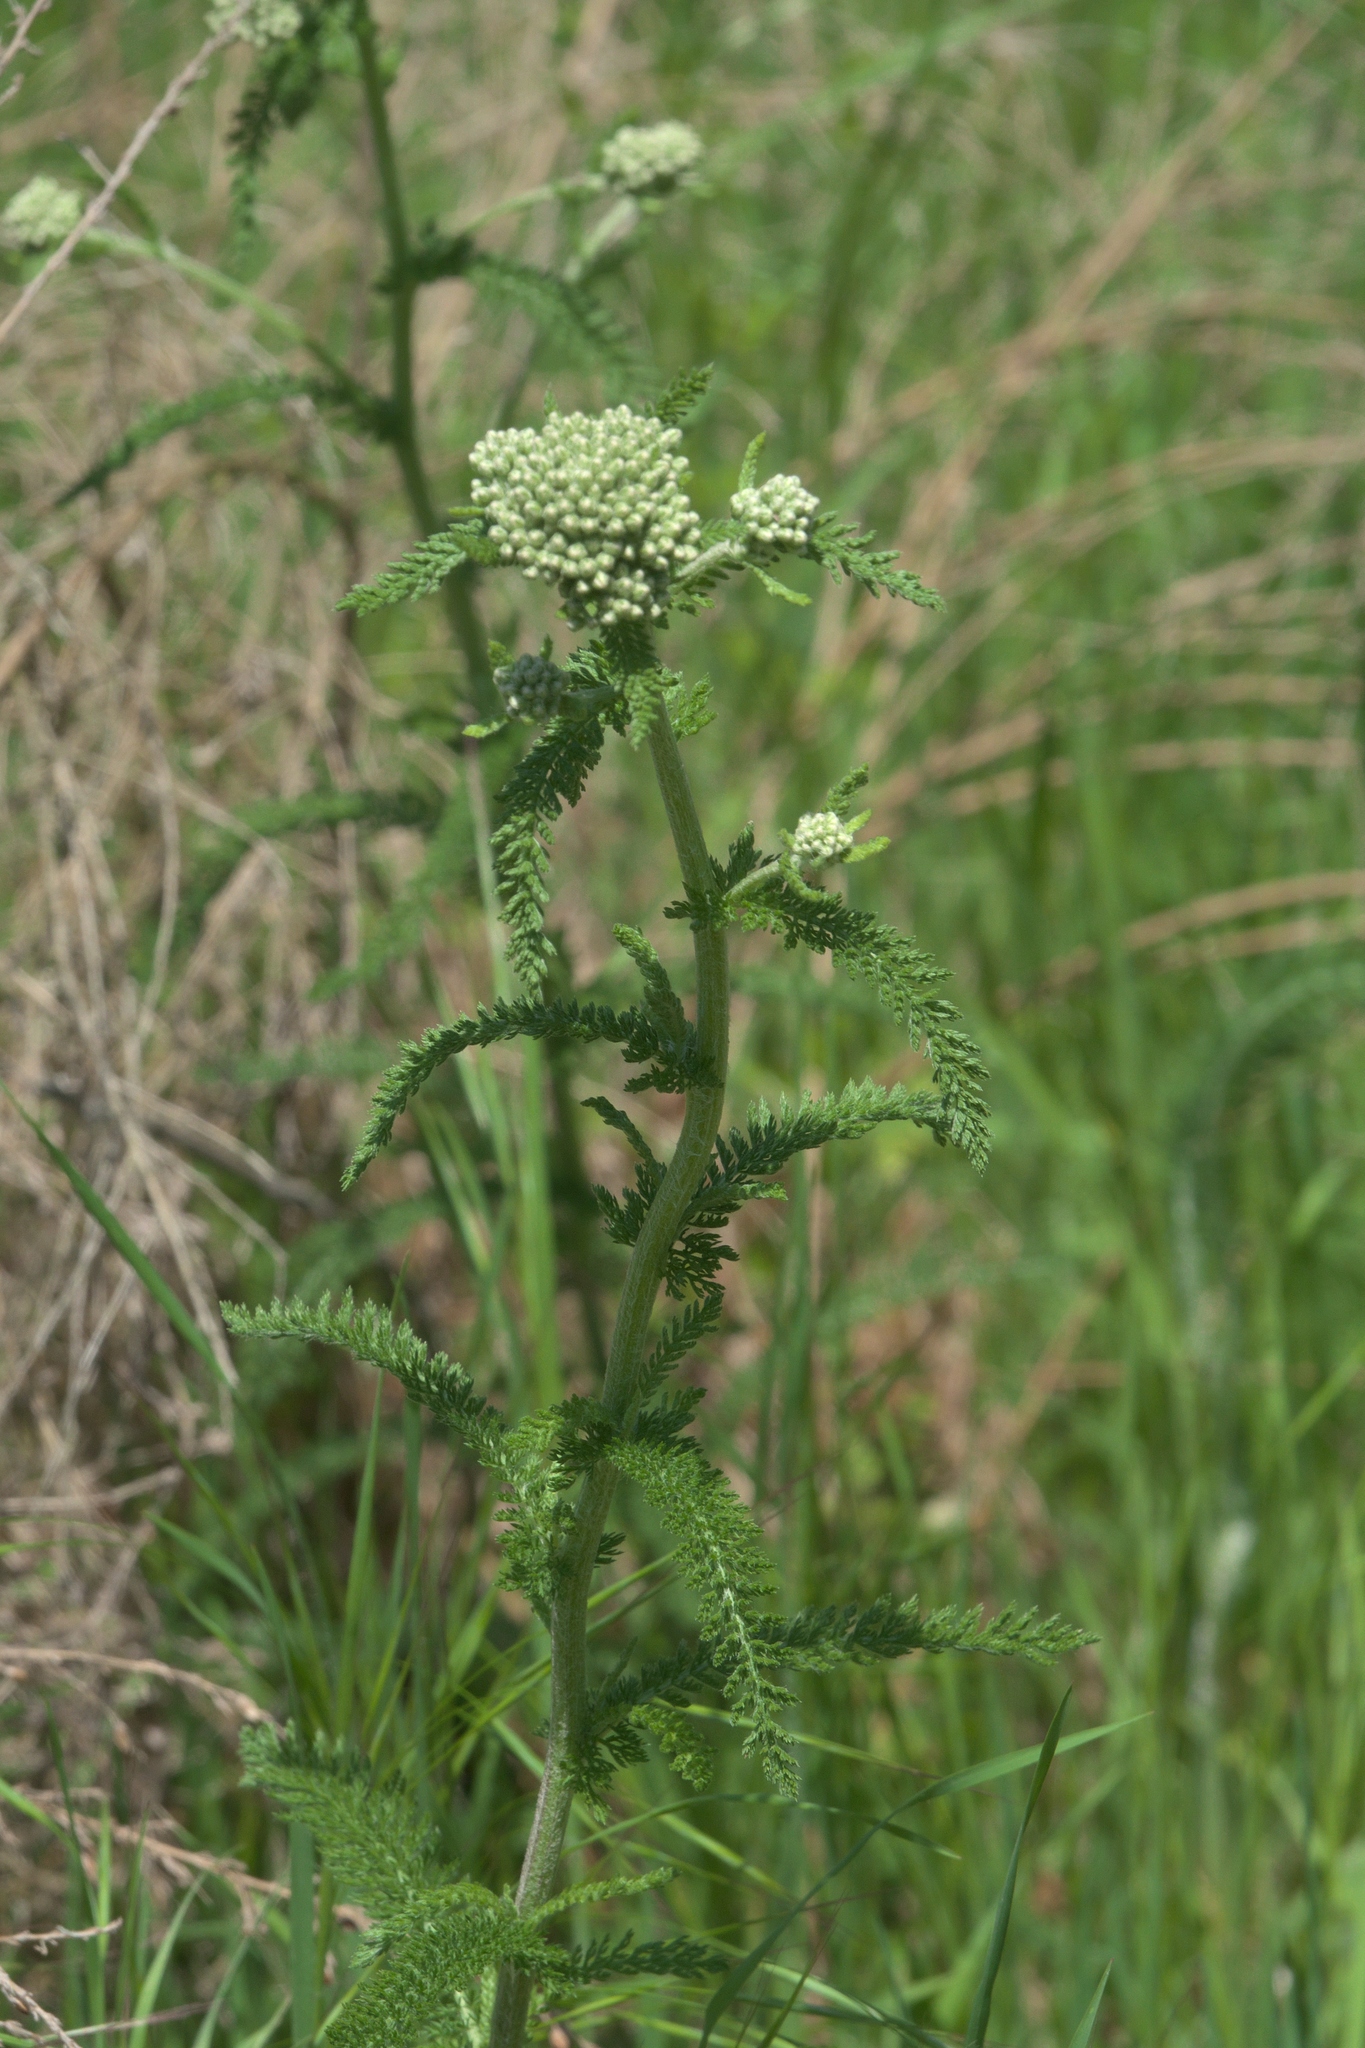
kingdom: Plantae
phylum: Tracheophyta
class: Magnoliopsida
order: Asterales
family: Asteraceae
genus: Achillea
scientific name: Achillea millefolium
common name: Yarrow
